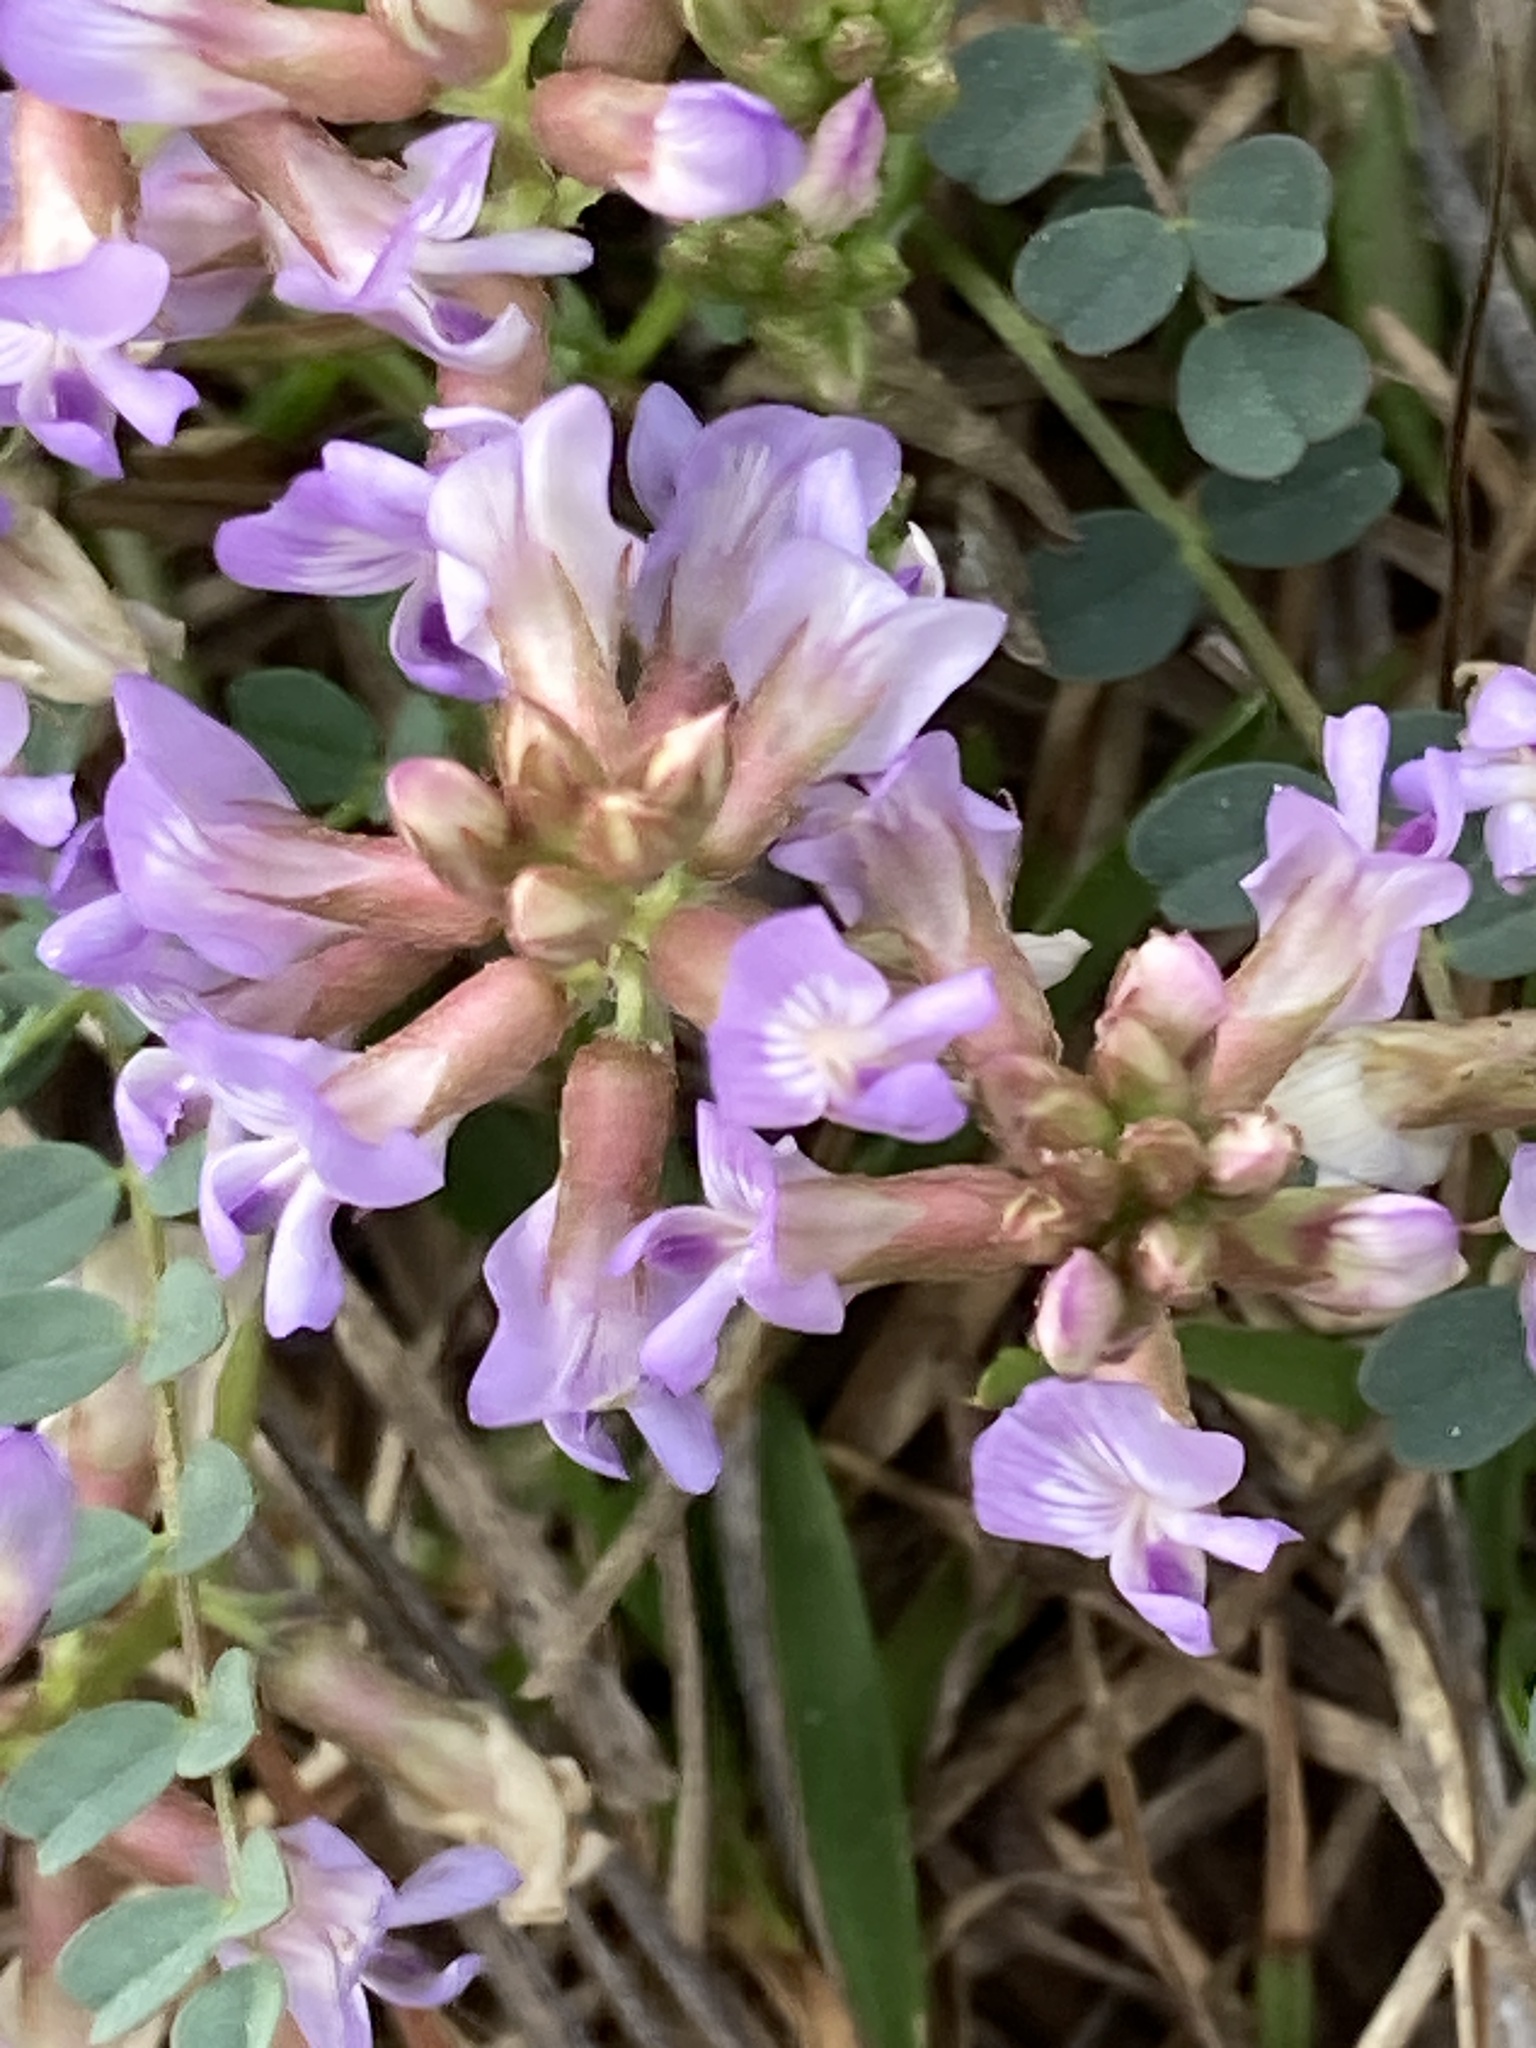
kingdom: Plantae
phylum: Tracheophyta
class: Magnoliopsida
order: Fabales
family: Fabaceae
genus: Astragalus
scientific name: Astragalus obcordatus
